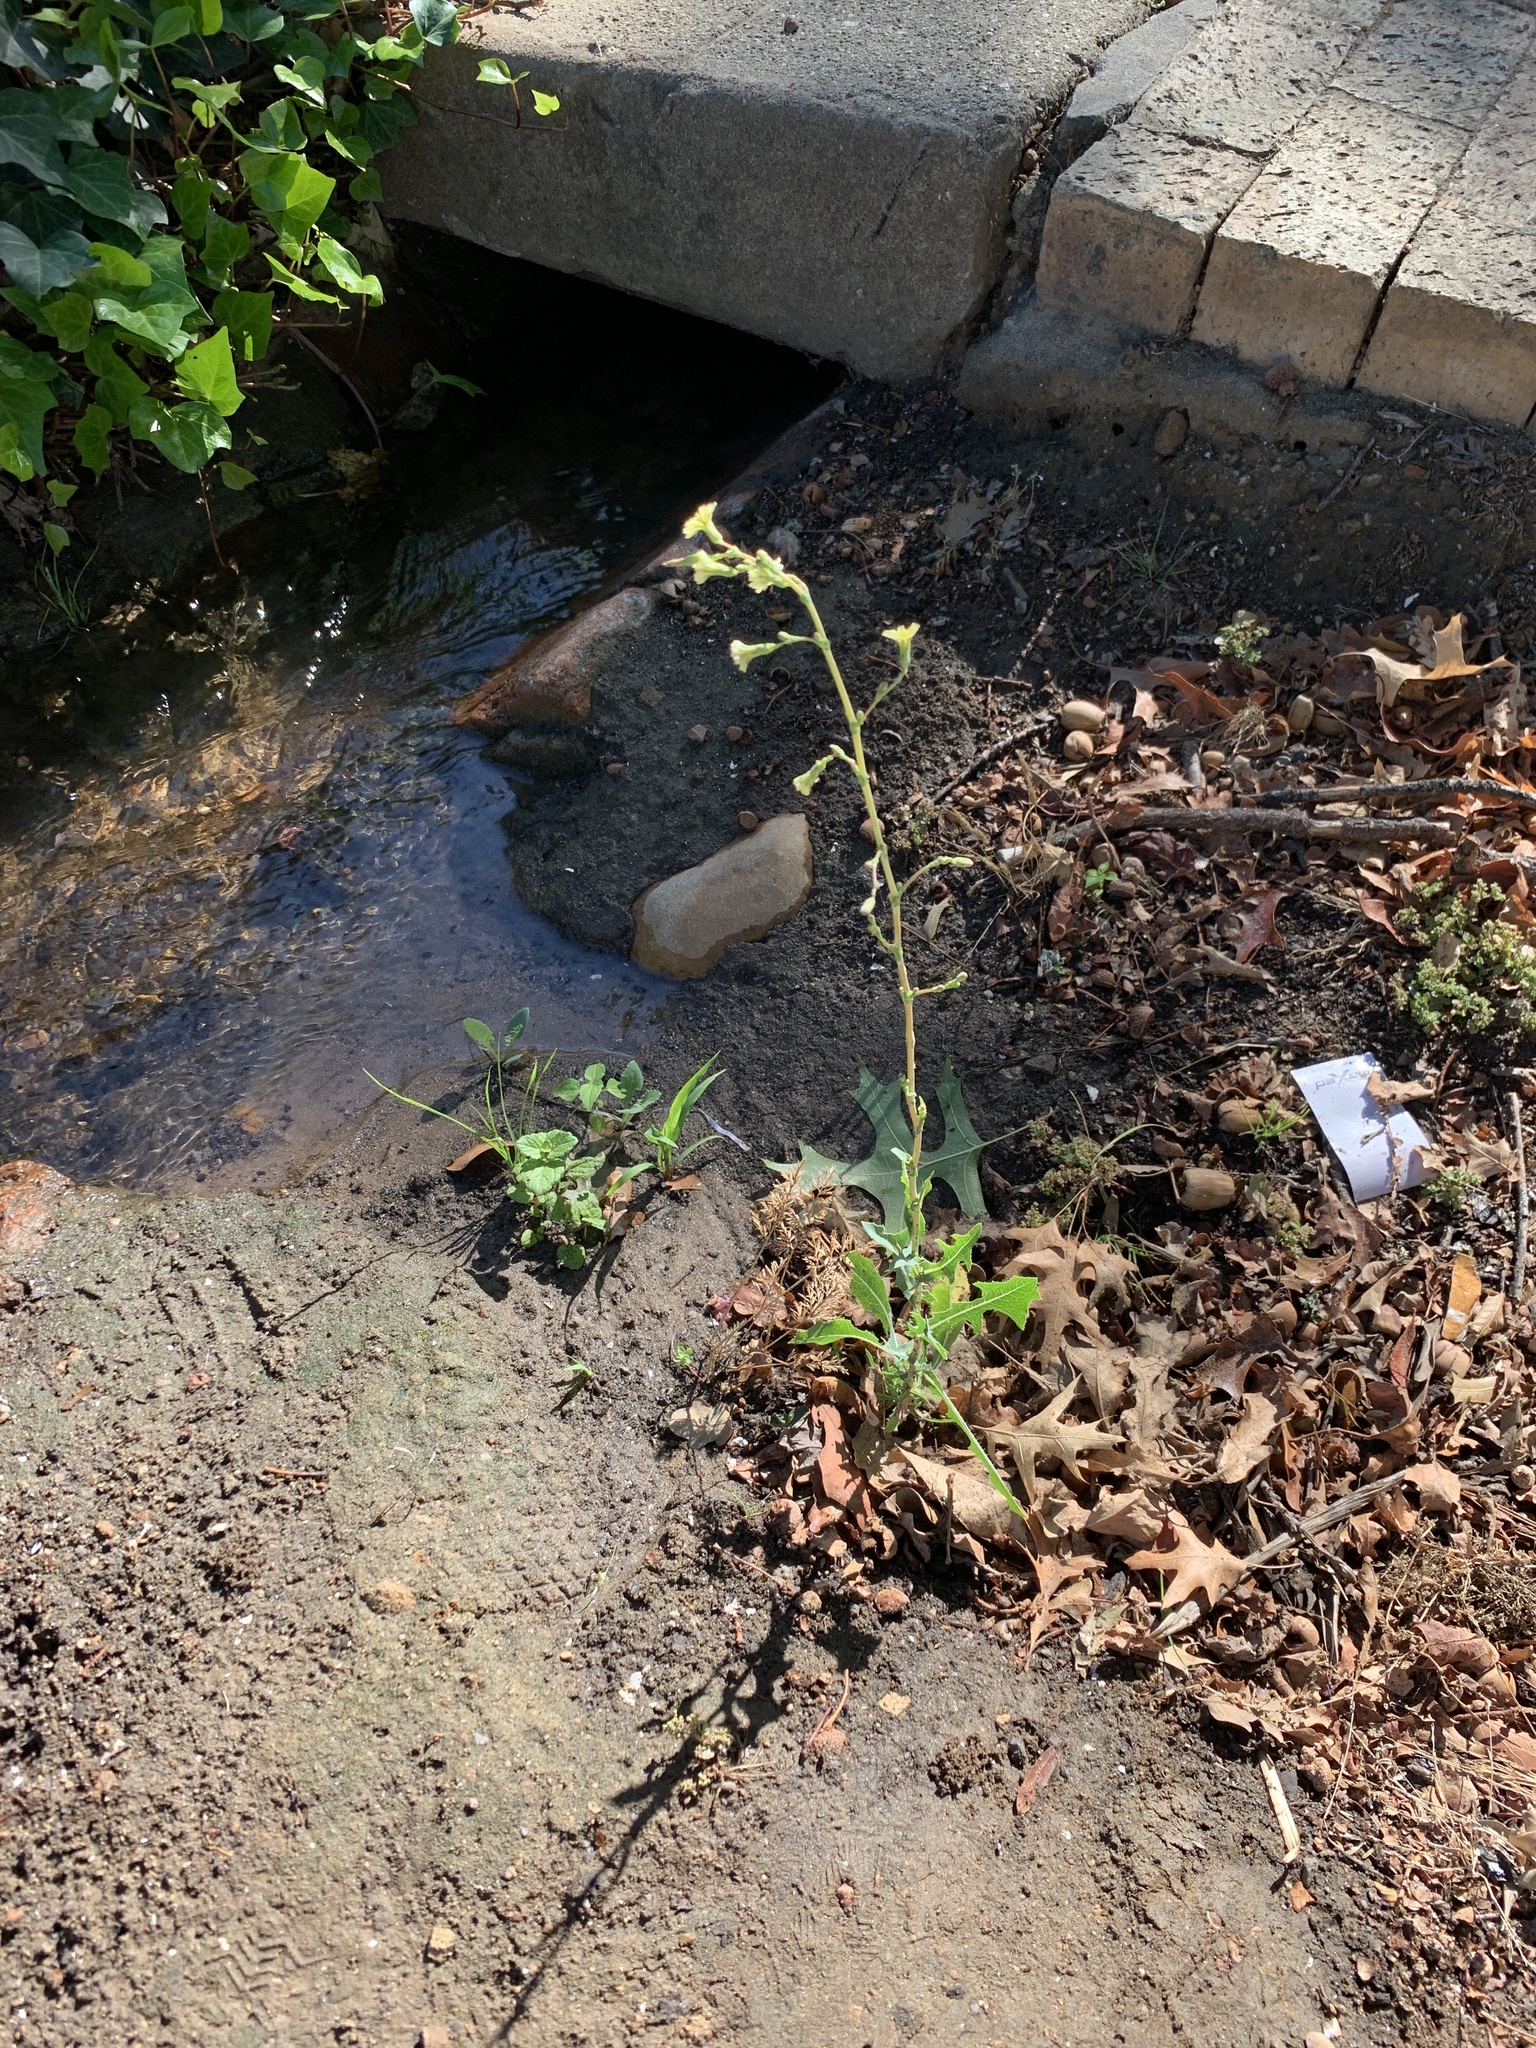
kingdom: Plantae
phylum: Tracheophyta
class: Magnoliopsida
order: Asterales
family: Asteraceae
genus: Lactuca
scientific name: Lactuca serriola
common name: Prickly lettuce
